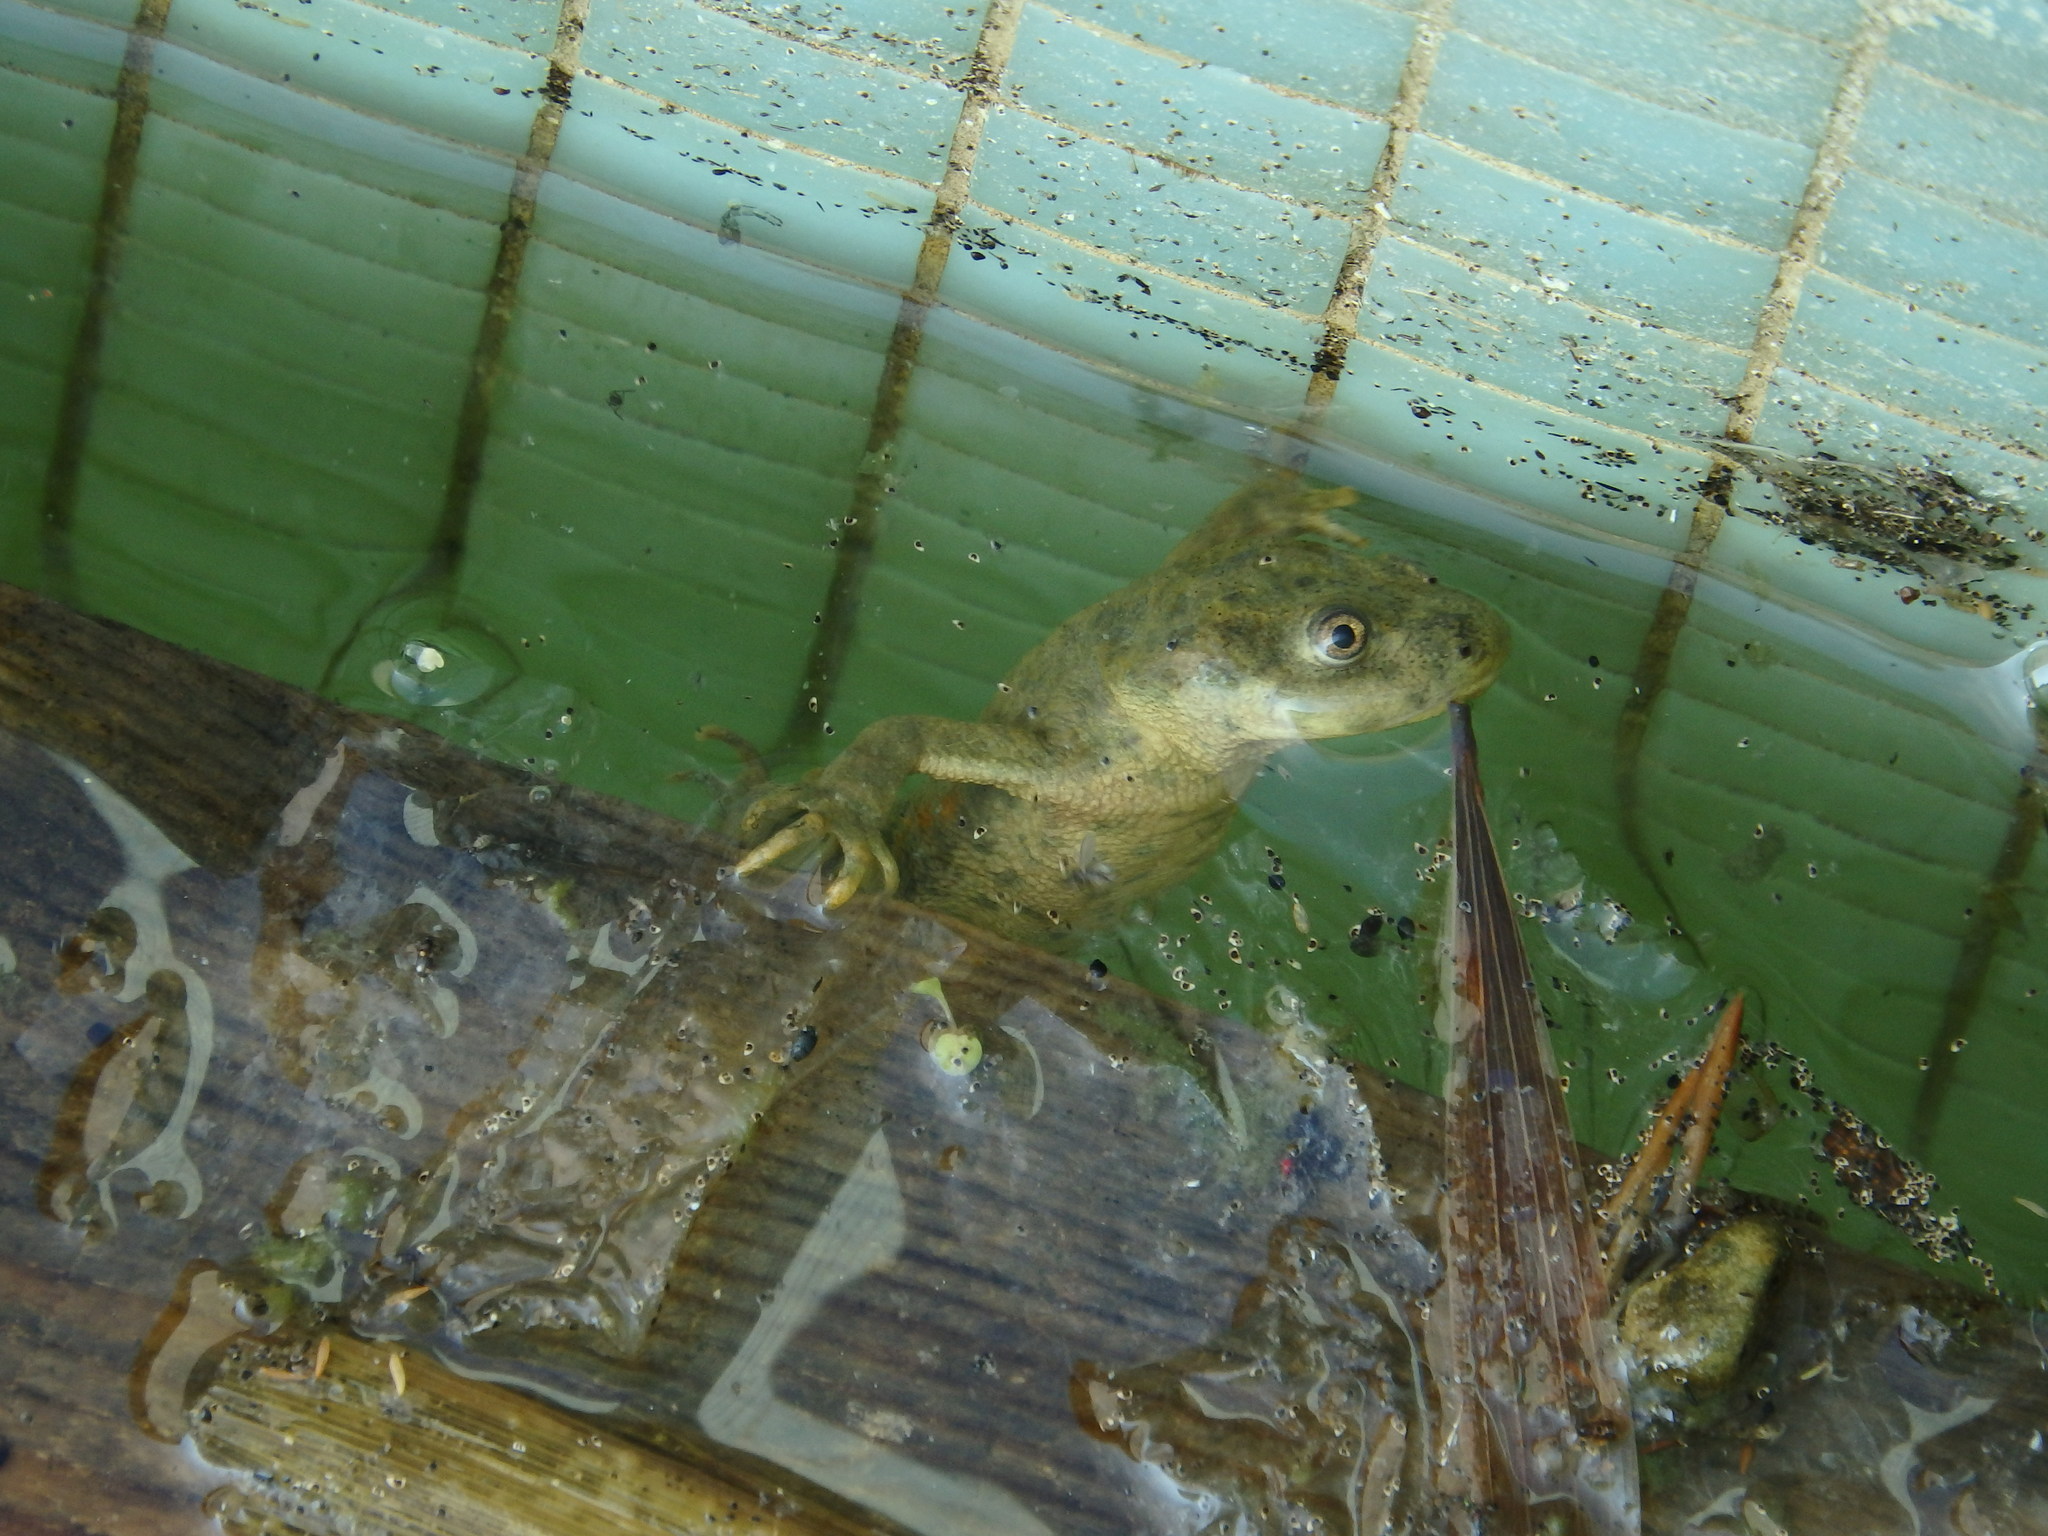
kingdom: Animalia
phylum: Chordata
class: Amphibia
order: Caudata
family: Salamandridae
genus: Pleurodeles
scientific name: Pleurodeles waltl
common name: Iberian ribbed newt
